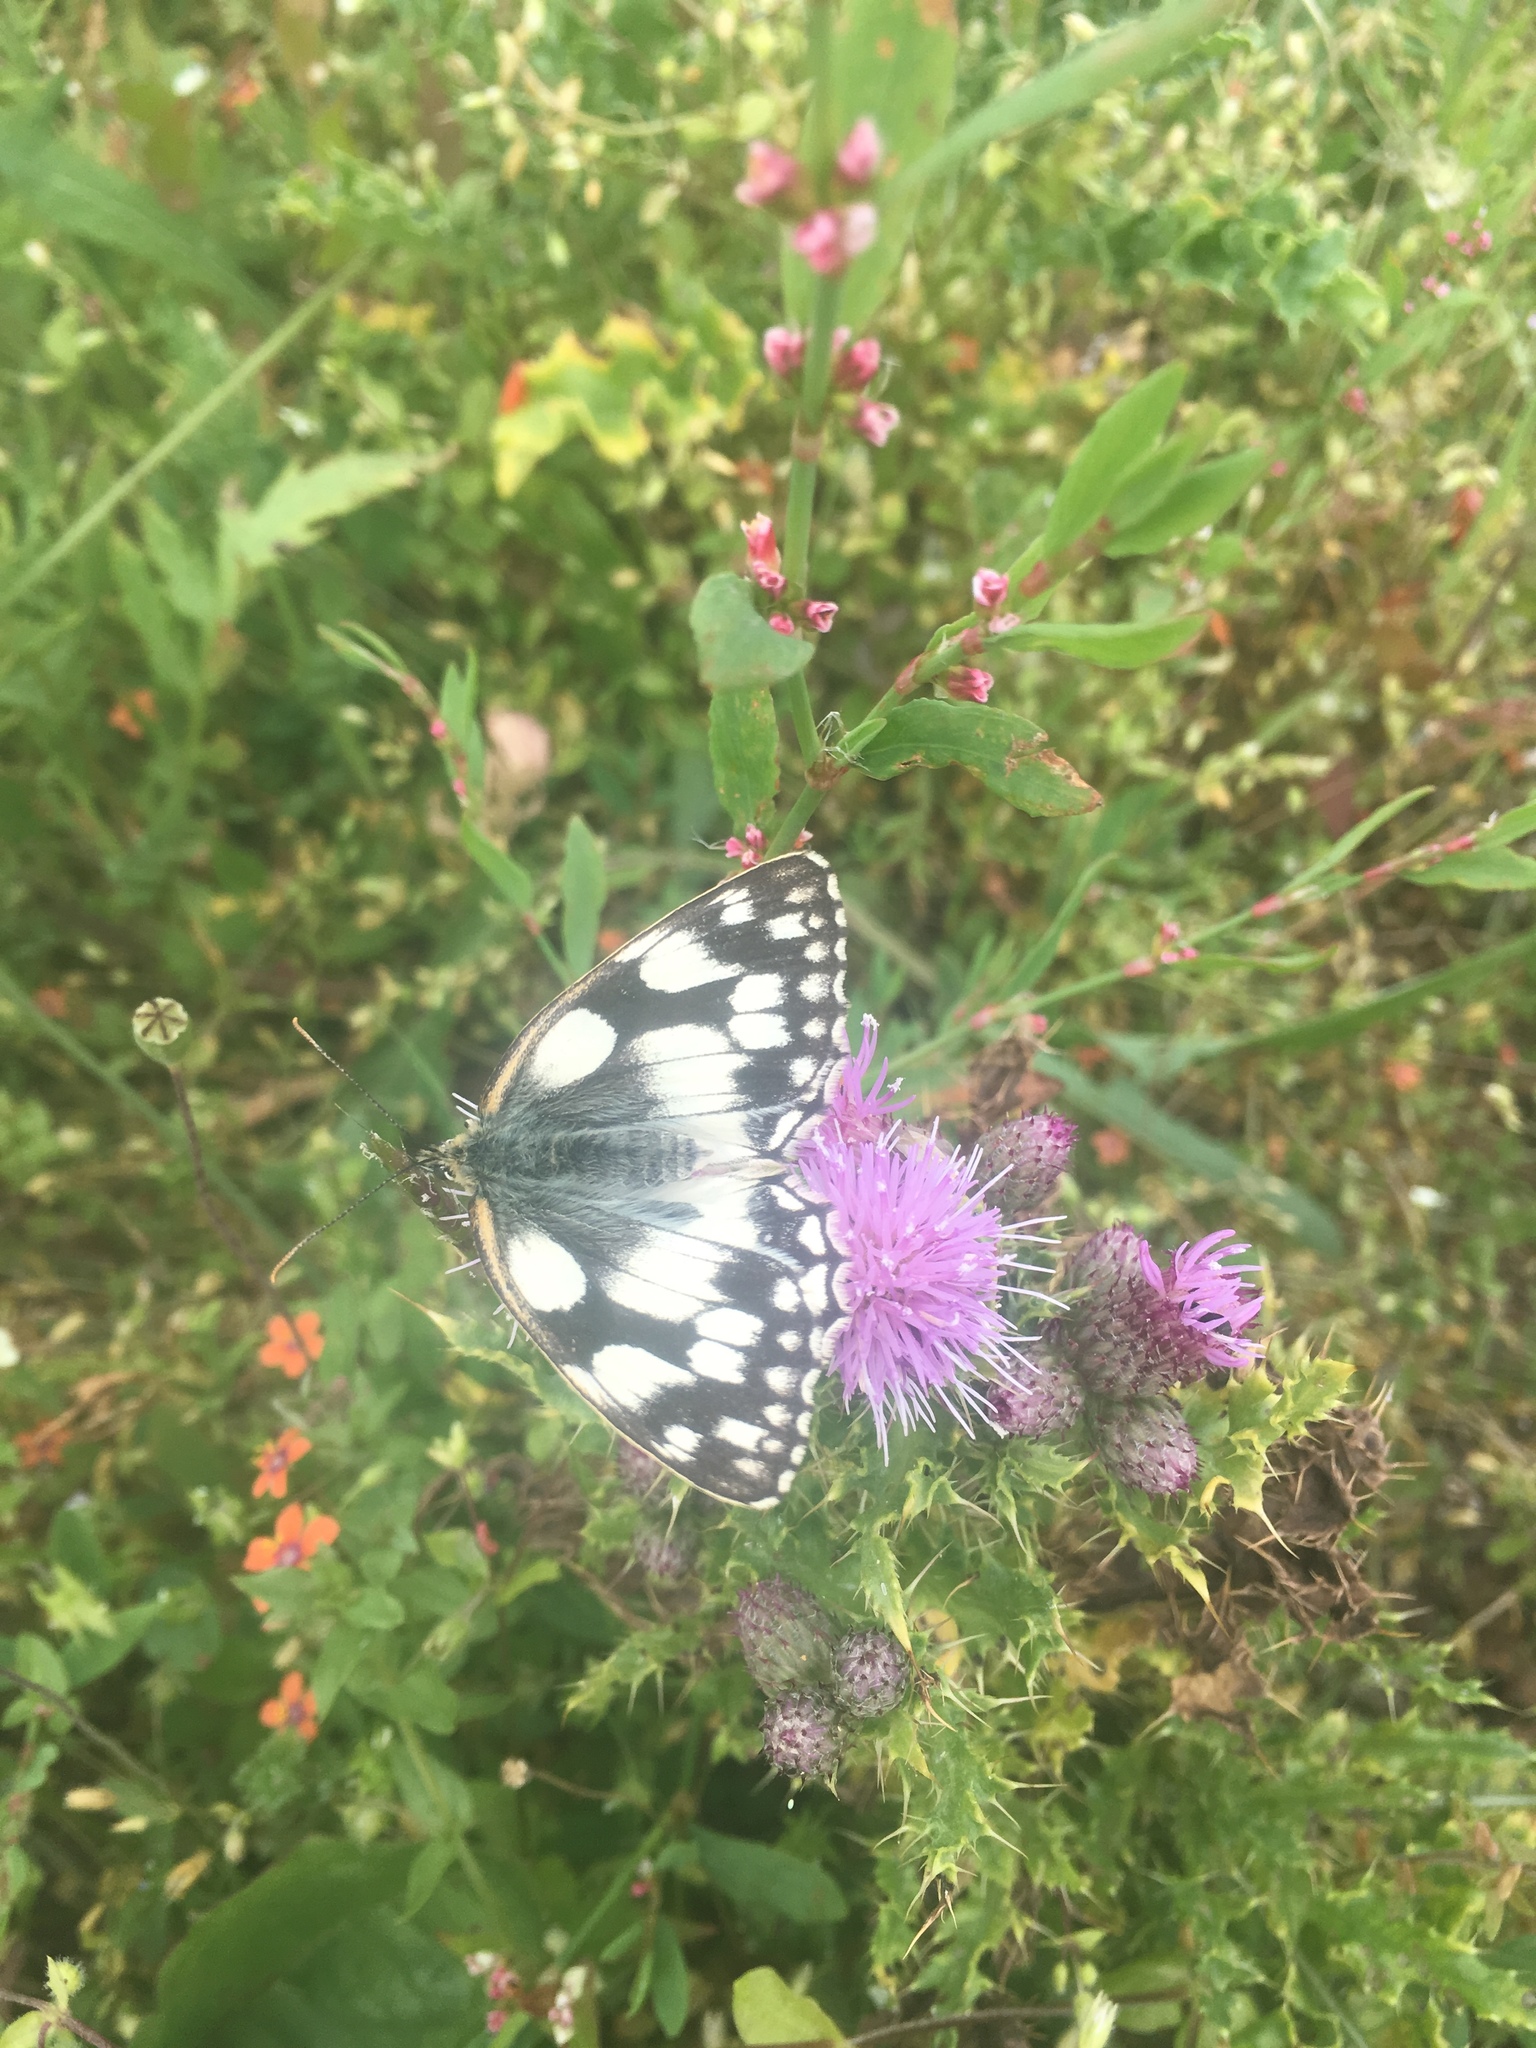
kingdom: Animalia
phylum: Arthropoda
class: Insecta
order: Lepidoptera
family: Nymphalidae
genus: Melanargia
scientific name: Melanargia galathea
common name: Marbled white
